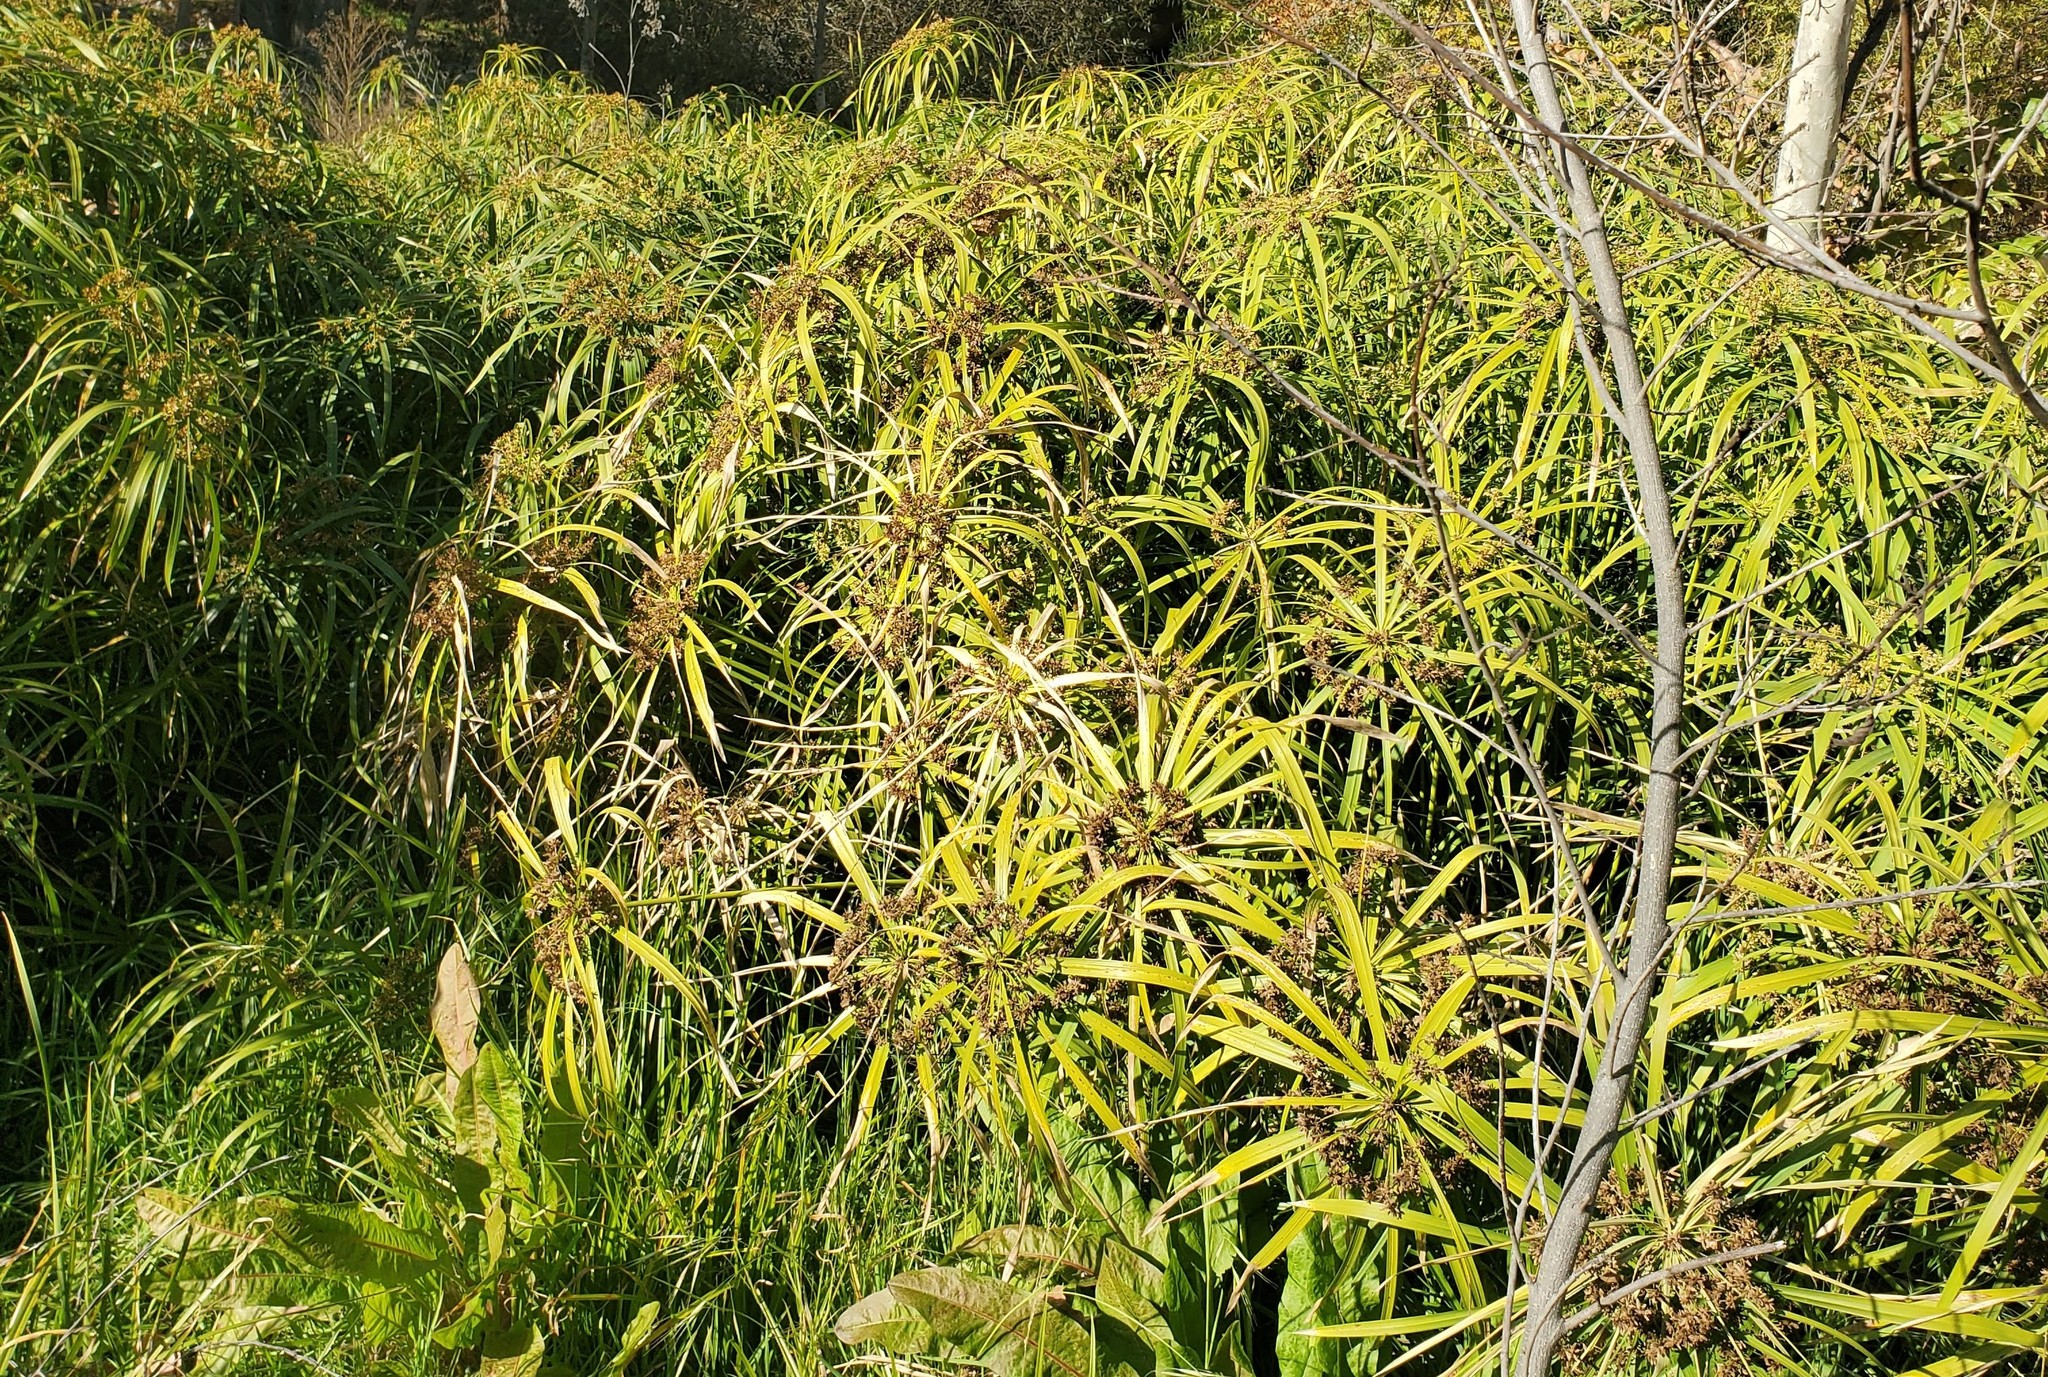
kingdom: Plantae
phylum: Tracheophyta
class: Liliopsida
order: Poales
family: Cyperaceae
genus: Cyperus
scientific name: Cyperus alternifolius
